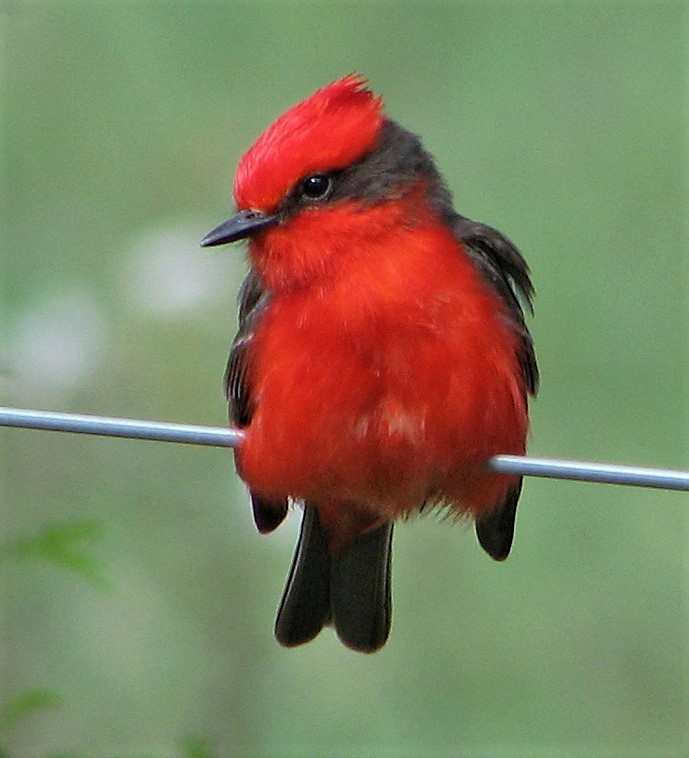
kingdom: Animalia
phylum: Chordata
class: Aves
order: Passeriformes
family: Tyrannidae
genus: Pyrocephalus
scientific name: Pyrocephalus rubinus
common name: Vermilion flycatcher
